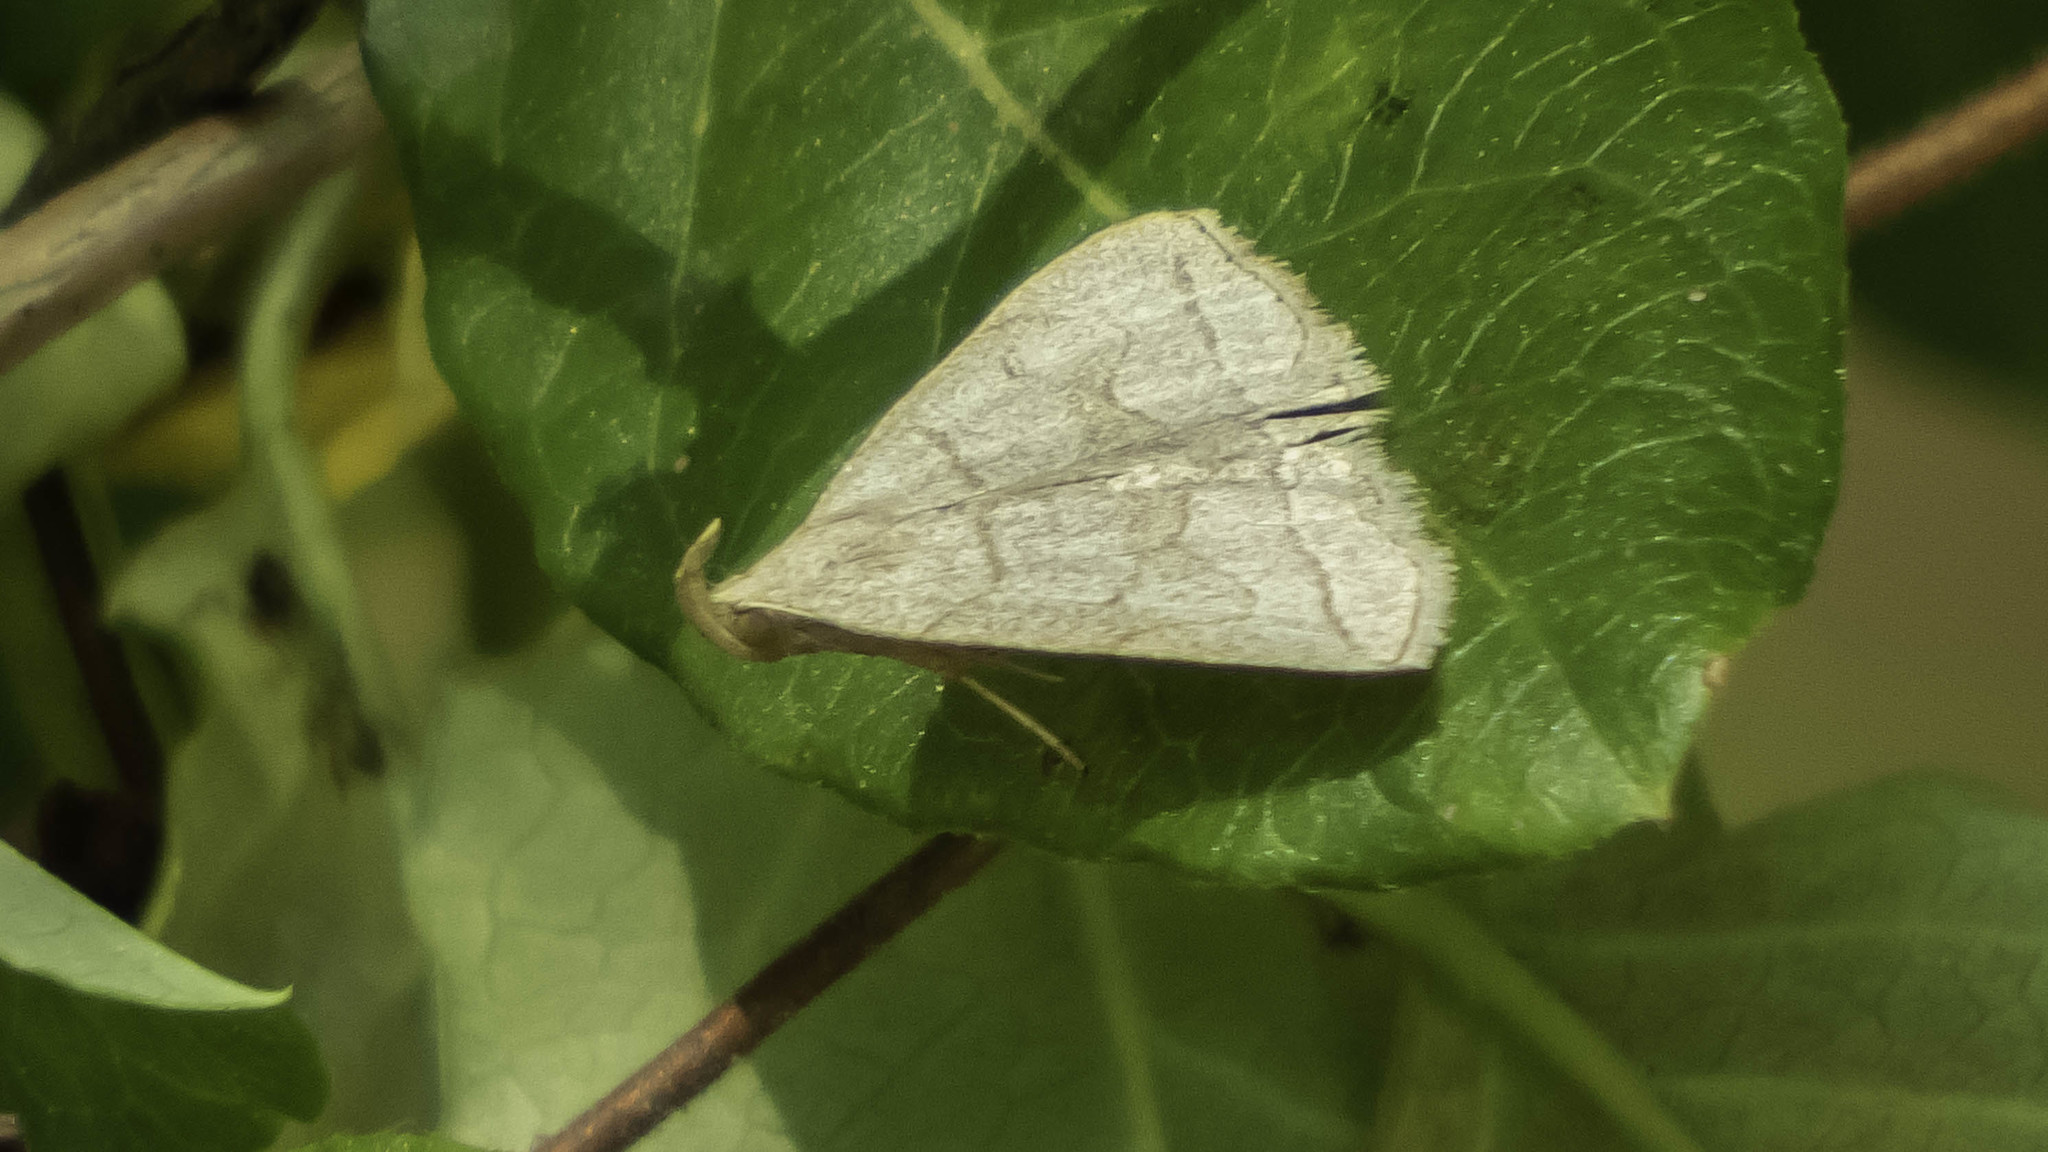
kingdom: Animalia
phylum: Arthropoda
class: Insecta
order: Lepidoptera
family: Erebidae
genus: Zanclognatha
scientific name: Zanclognatha pedipilalis
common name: Grayish fan-foot
